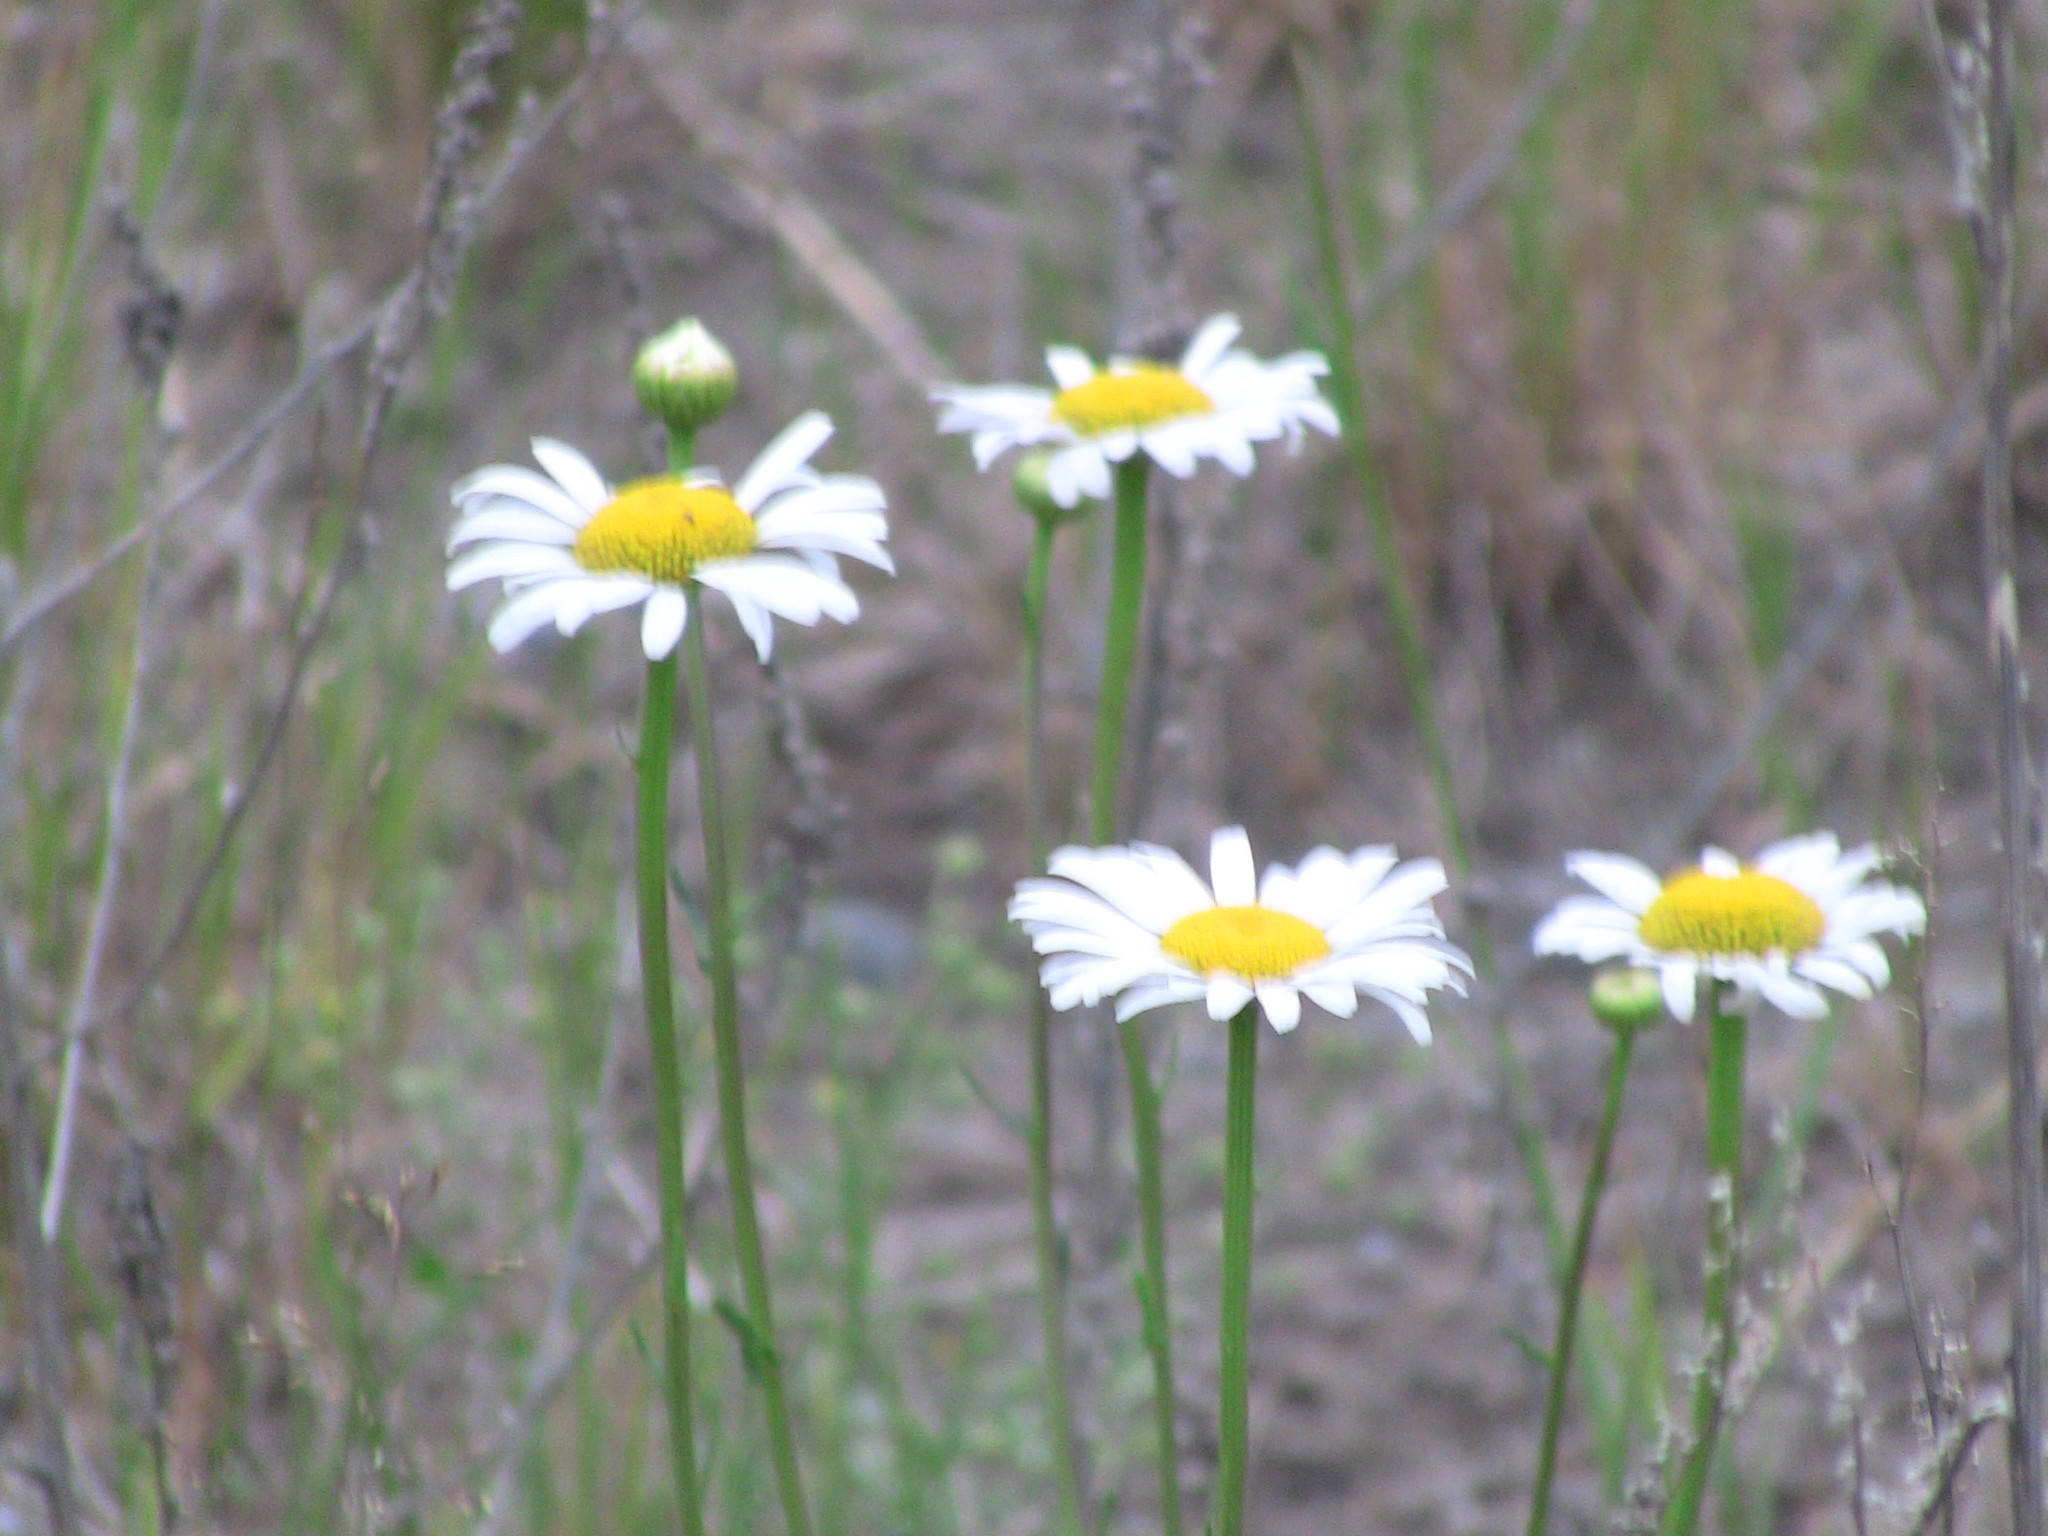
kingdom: Plantae
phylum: Tracheophyta
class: Magnoliopsida
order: Asterales
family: Asteraceae
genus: Leucanthemum
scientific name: Leucanthemum vulgare
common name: Oxeye daisy
